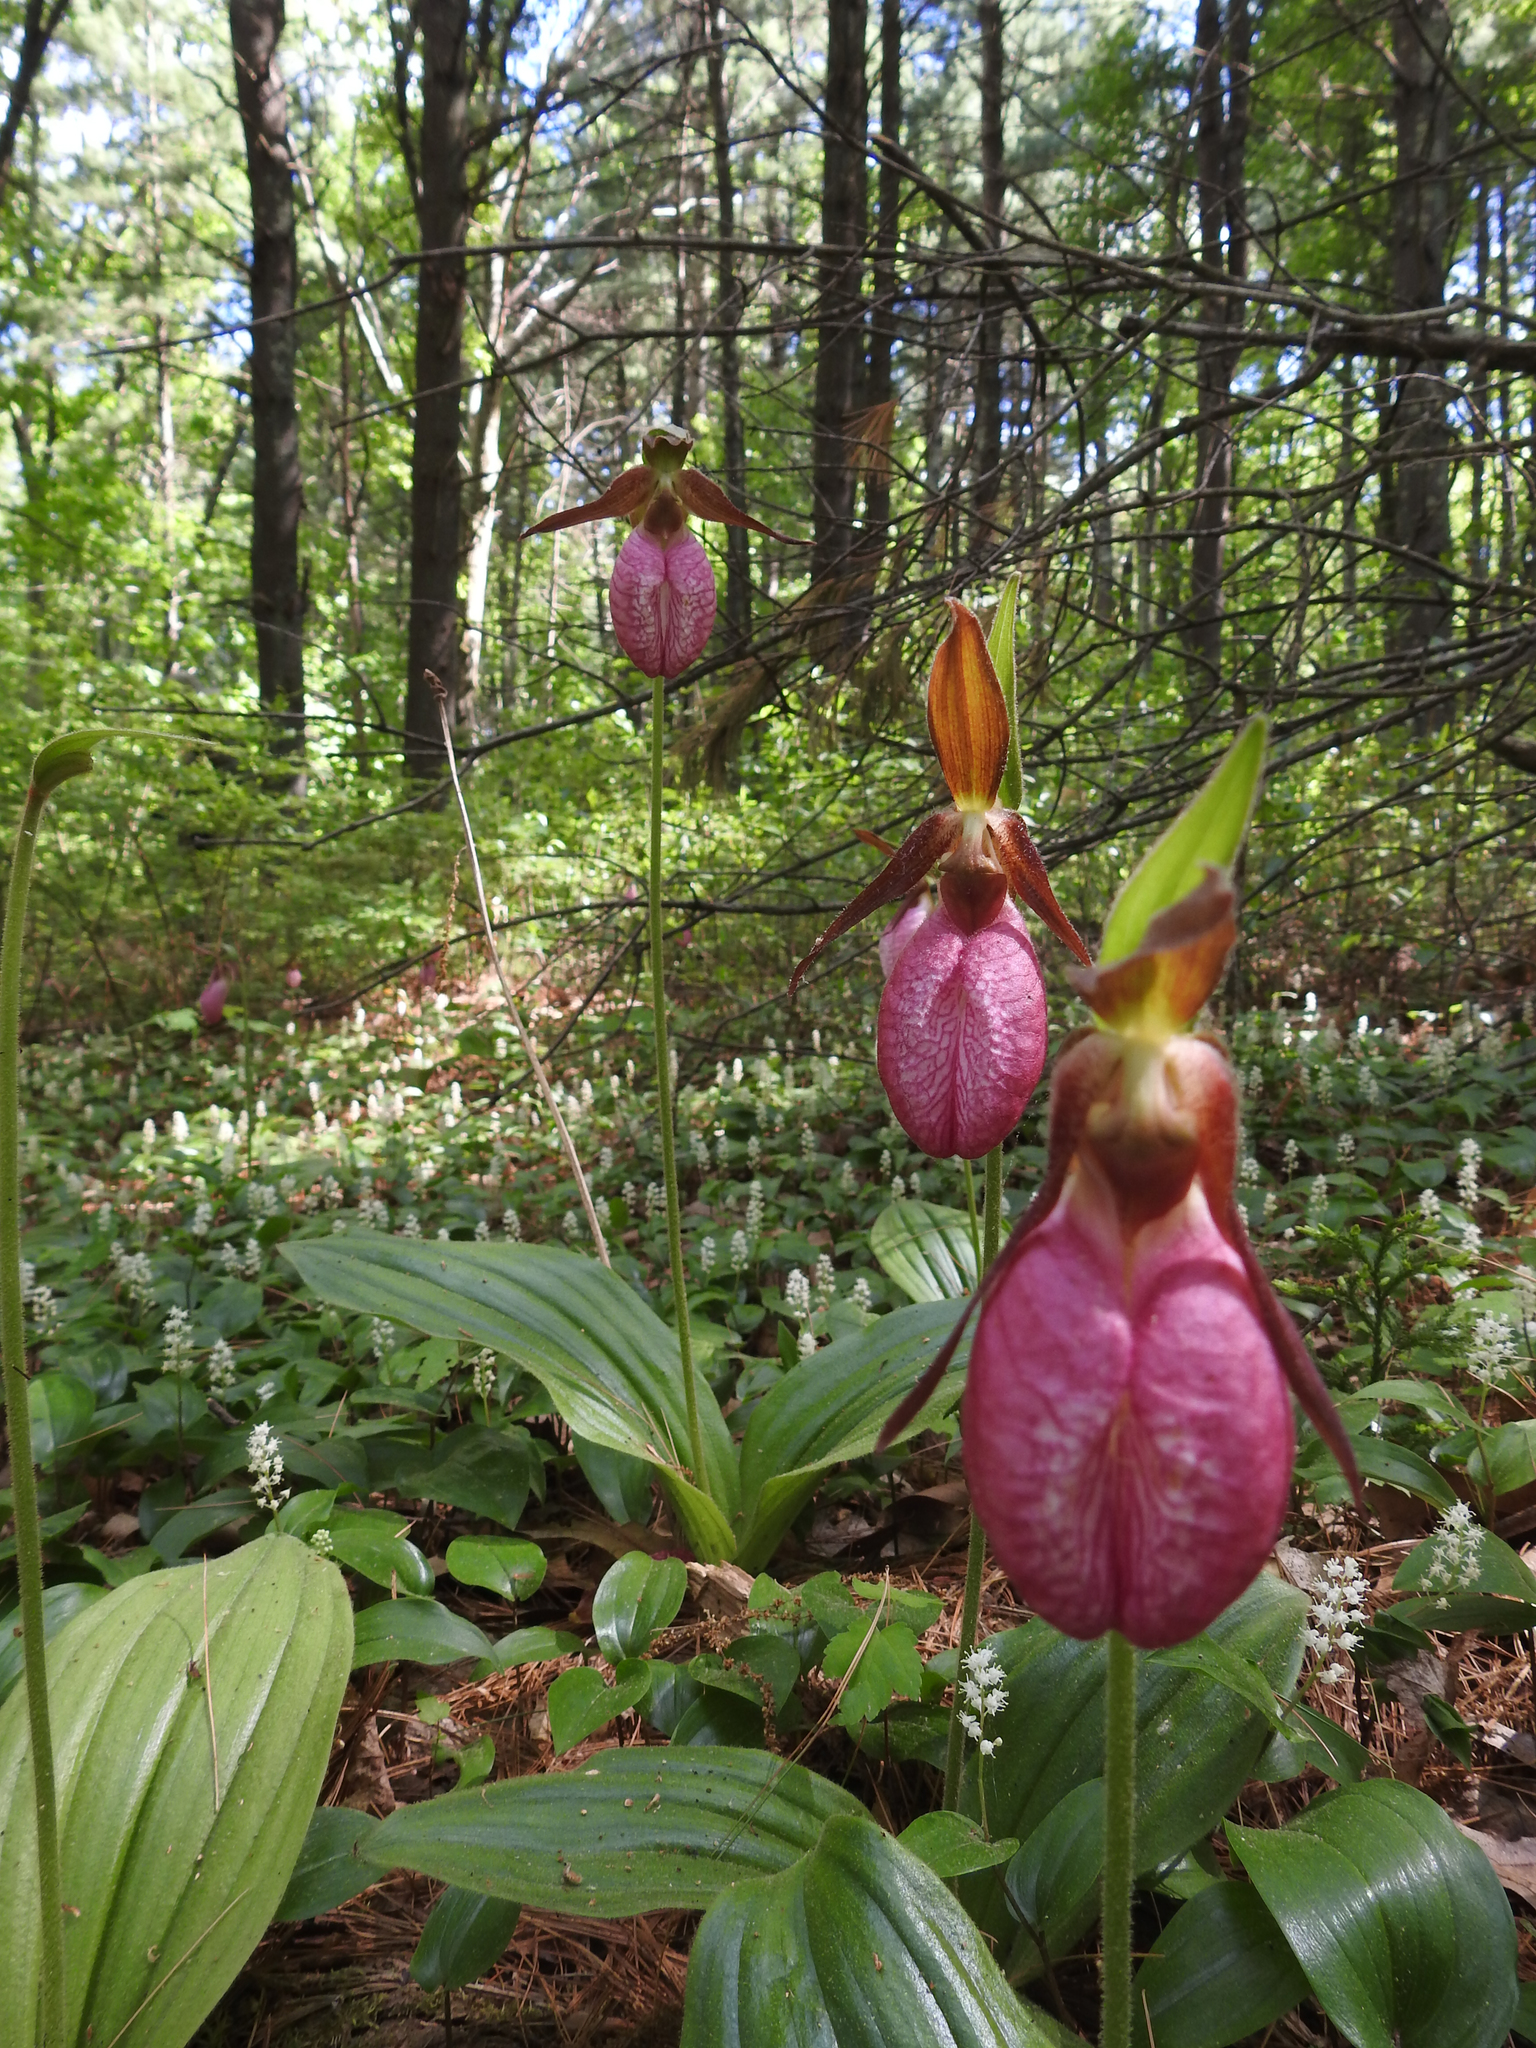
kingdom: Plantae
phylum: Tracheophyta
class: Liliopsida
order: Asparagales
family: Orchidaceae
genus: Cypripedium
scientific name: Cypripedium acaule
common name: Pink lady's-slipper
